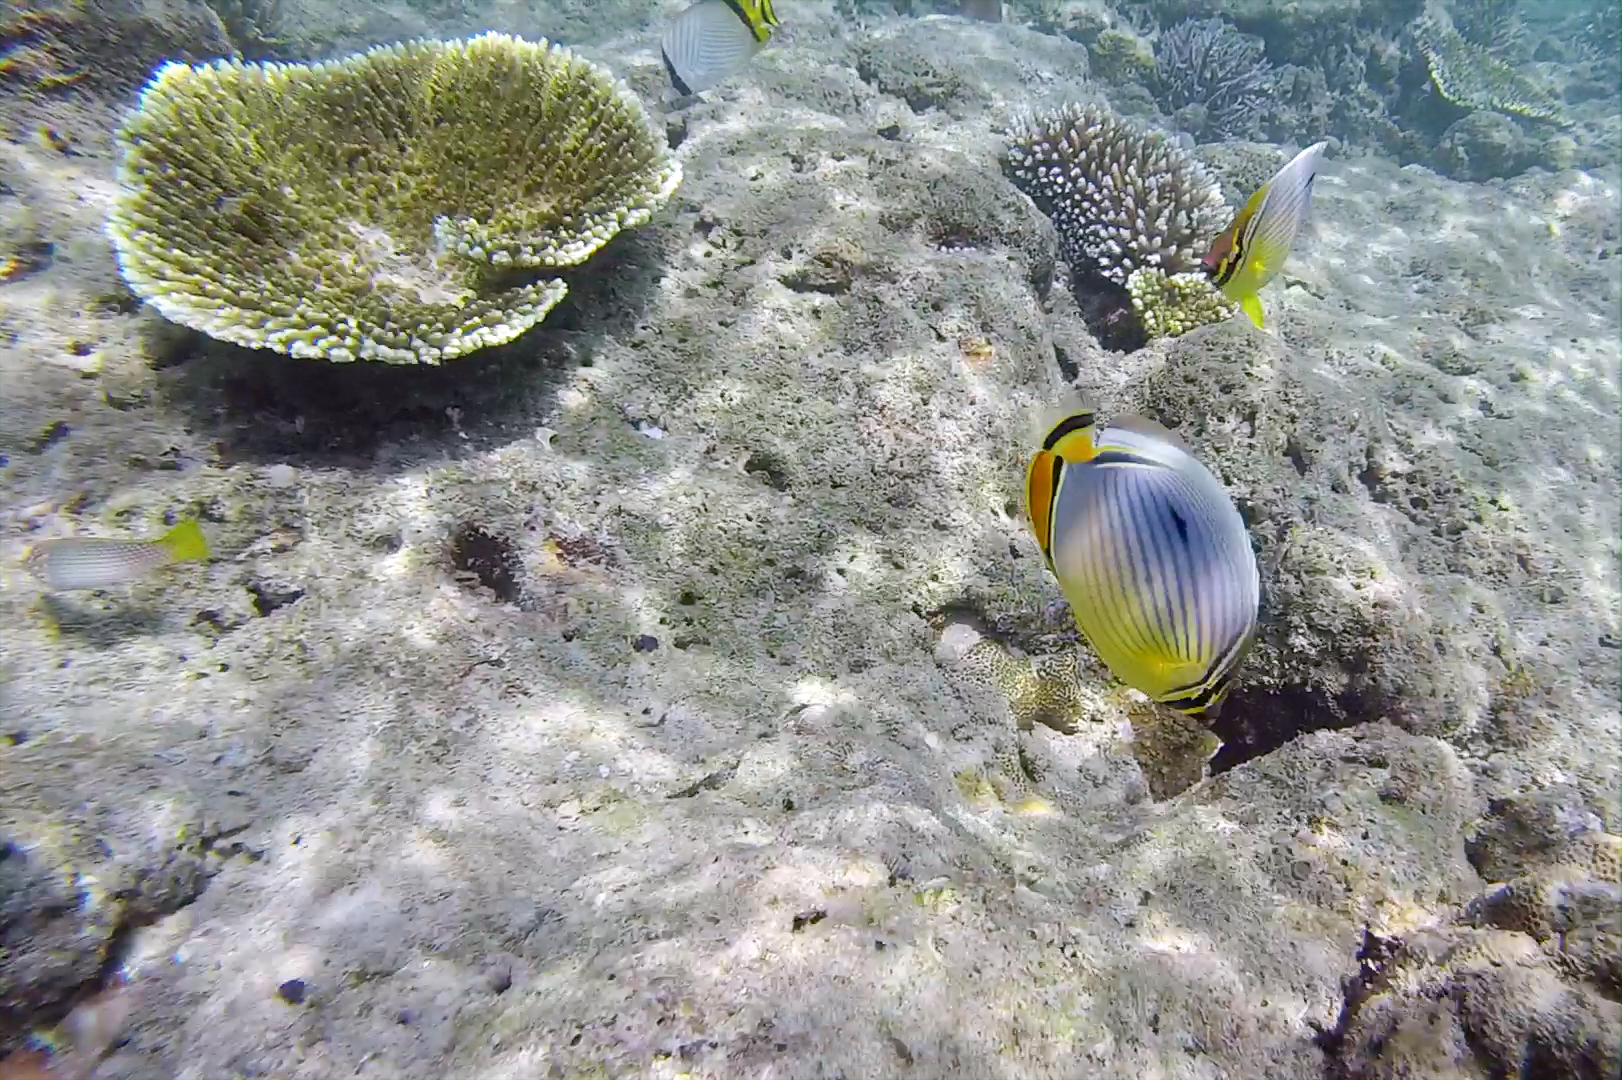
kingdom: Animalia
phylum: Chordata
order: Perciformes
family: Chaetodontidae
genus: Chaetodon
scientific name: Chaetodon trifasciatus
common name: Redfin butterflyfish
